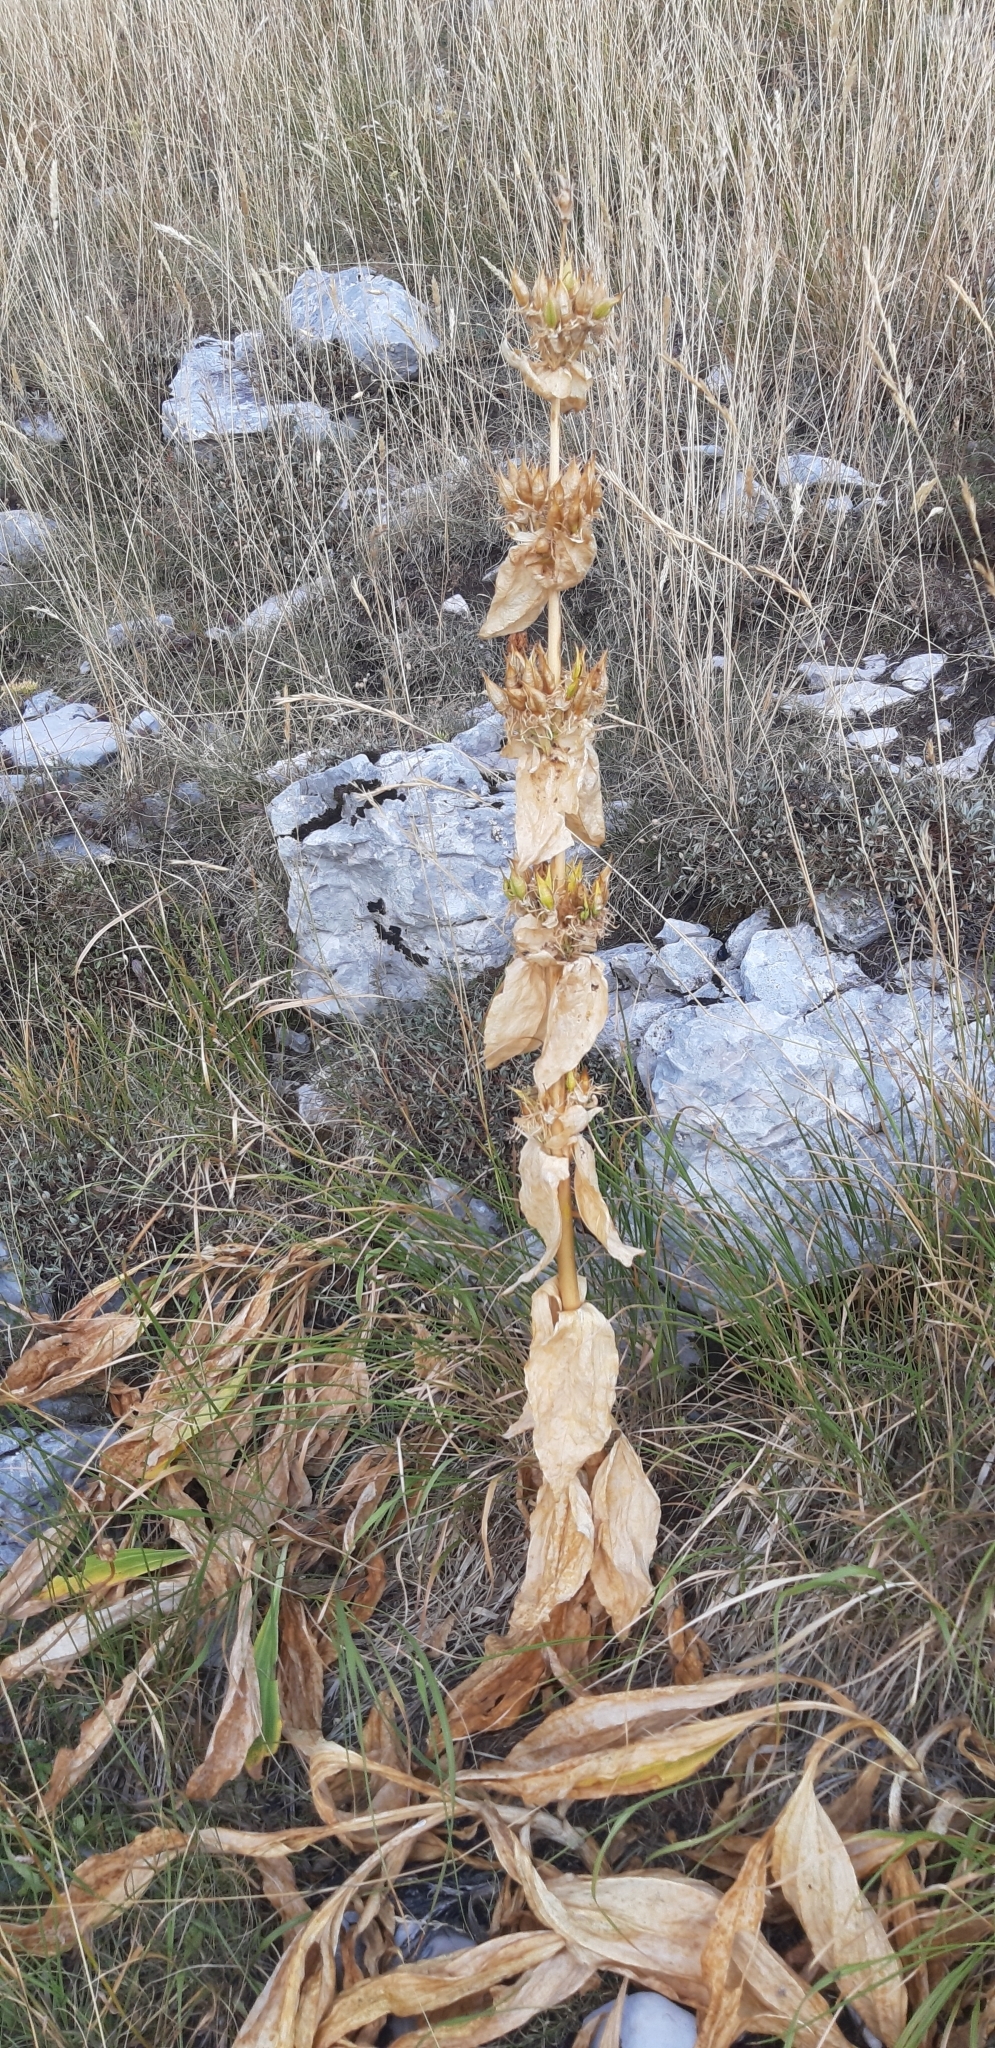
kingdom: Plantae
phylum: Tracheophyta
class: Magnoliopsida
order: Gentianales
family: Gentianaceae
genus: Gentiana
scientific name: Gentiana lutea
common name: Great yellow gentian
